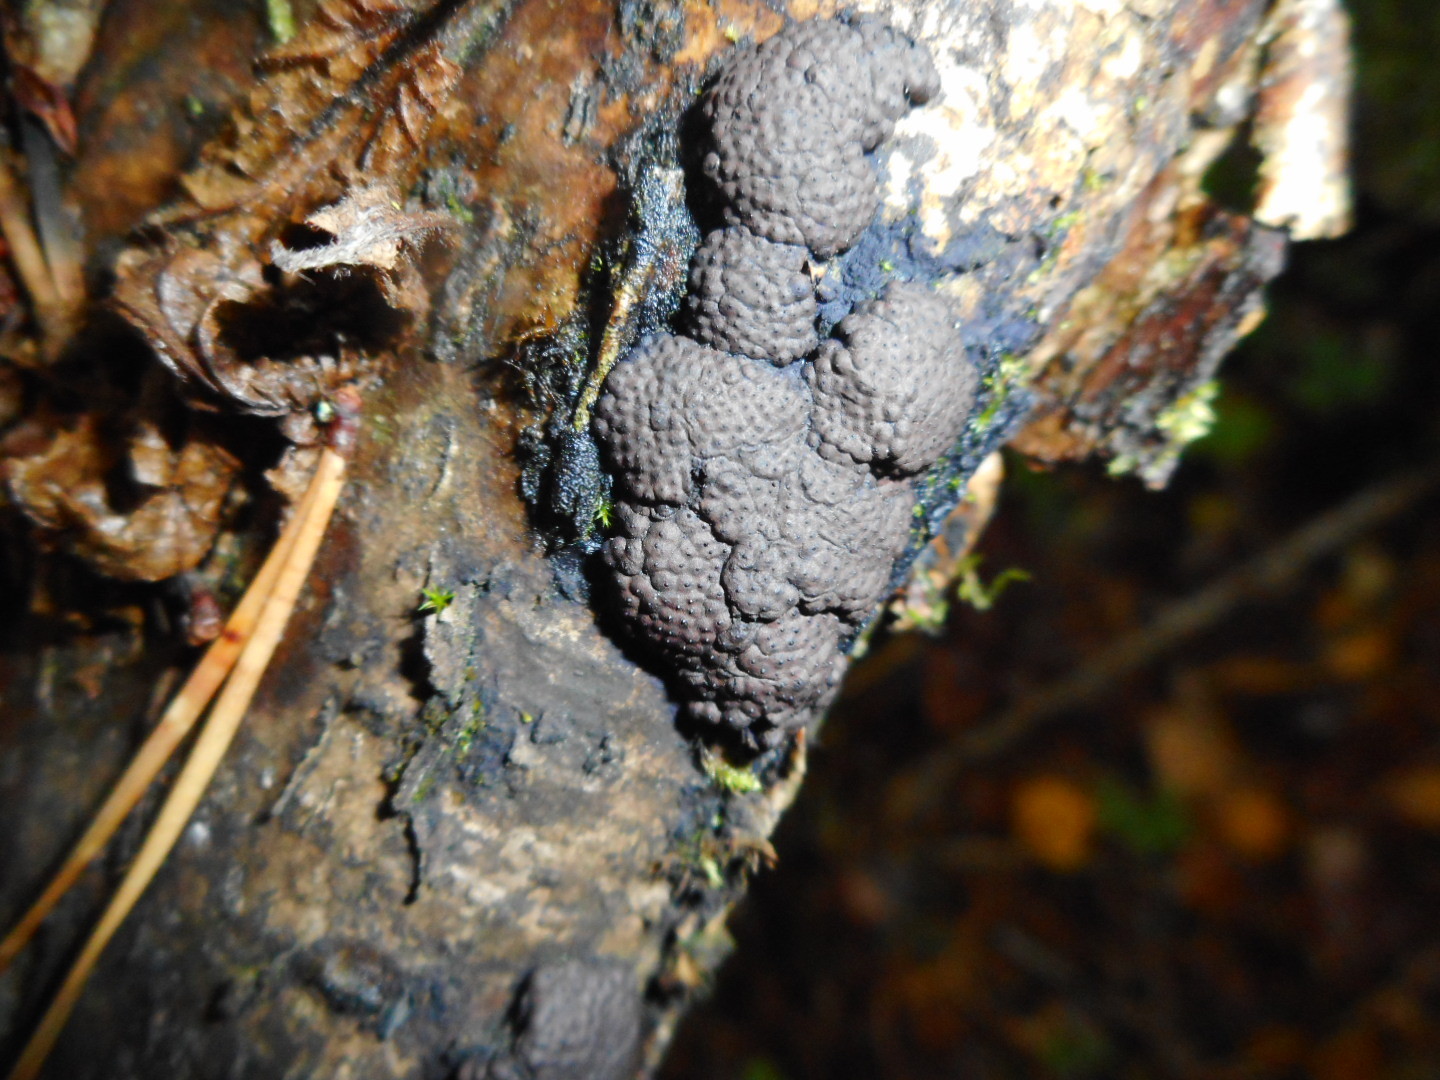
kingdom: Fungi
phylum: Ascomycota
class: Sordariomycetes
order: Xylariales
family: Hypoxylaceae
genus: Jackrogersella
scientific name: Jackrogersella multiformis
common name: Birch woodwart
